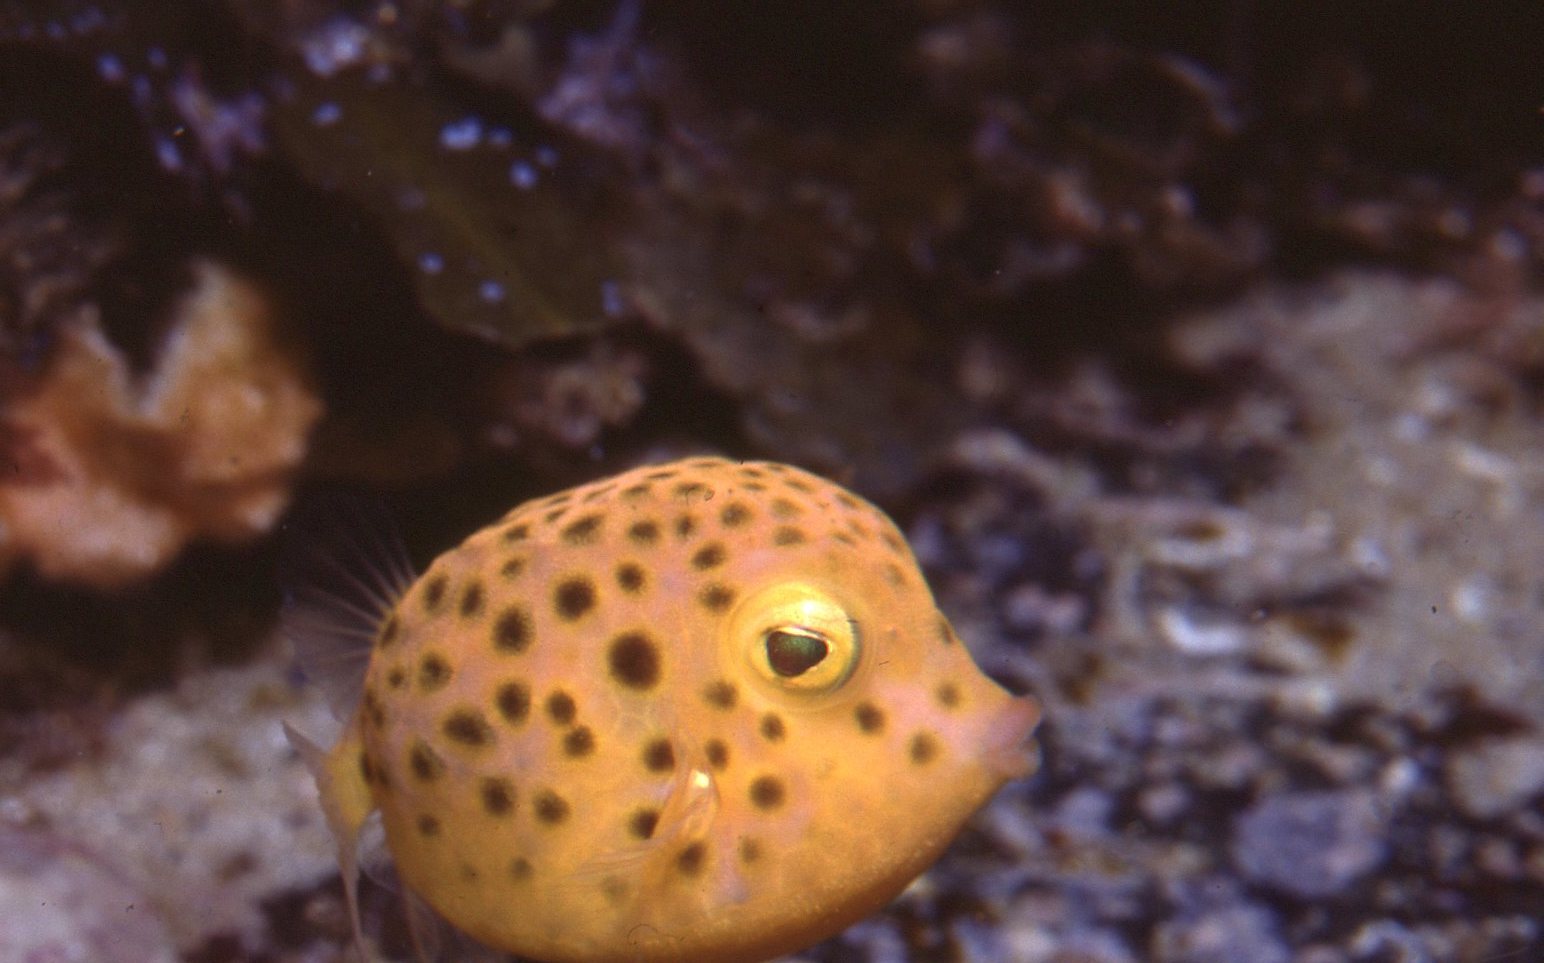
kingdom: Animalia
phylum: Chordata
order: Tetraodontiformes
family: Aracanidae
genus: Anoplocapros
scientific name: Anoplocapros inermis
